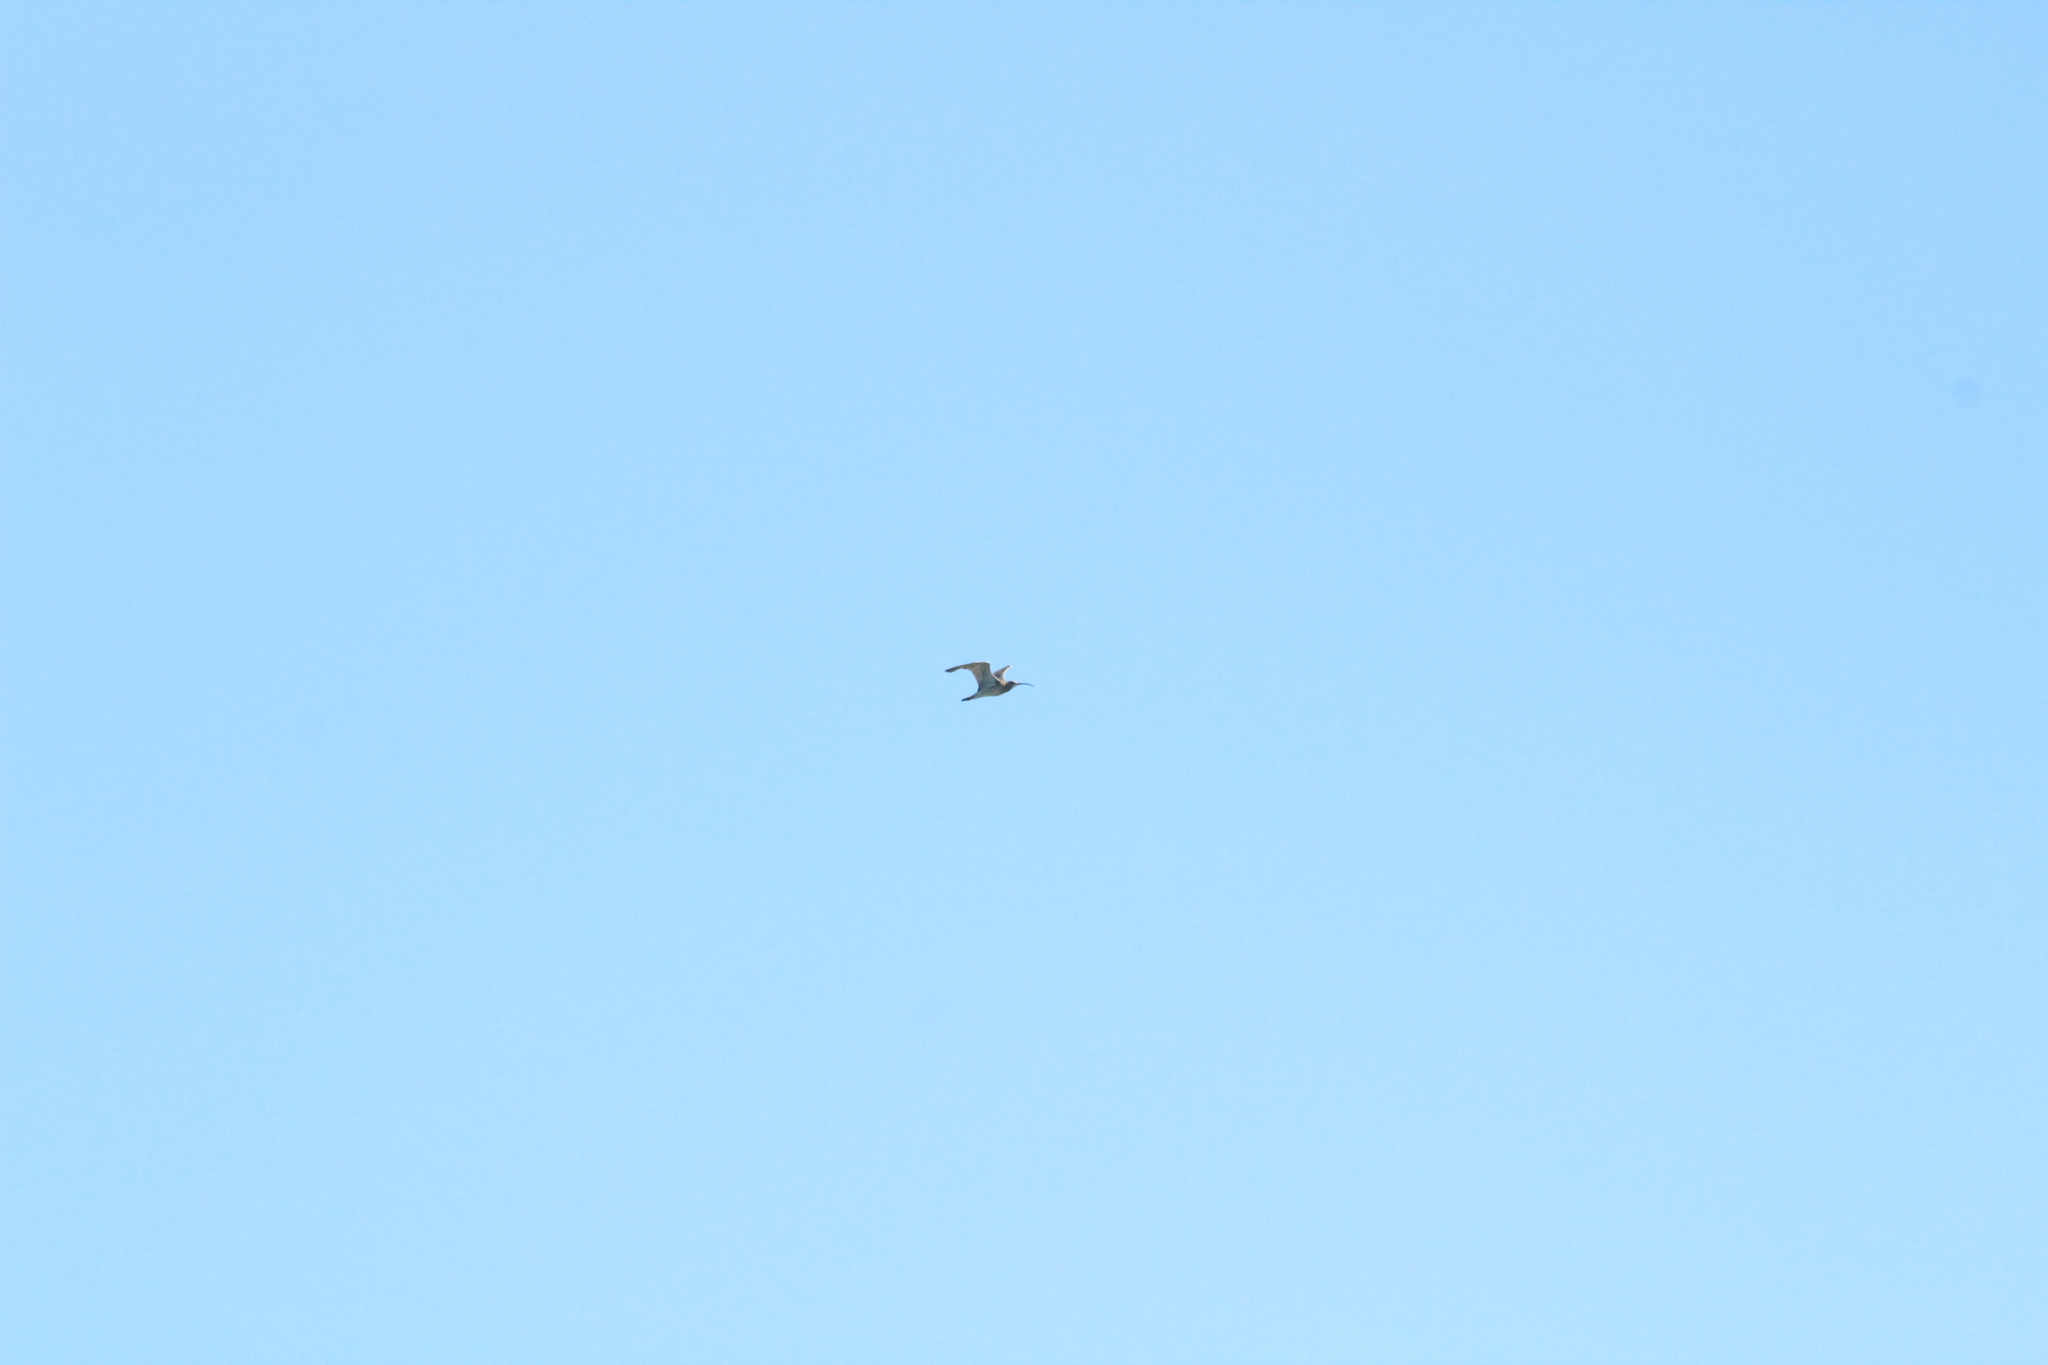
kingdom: Animalia
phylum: Chordata
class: Aves
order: Charadriiformes
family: Scolopacidae
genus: Numenius
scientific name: Numenius arquata
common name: Eurasian curlew
